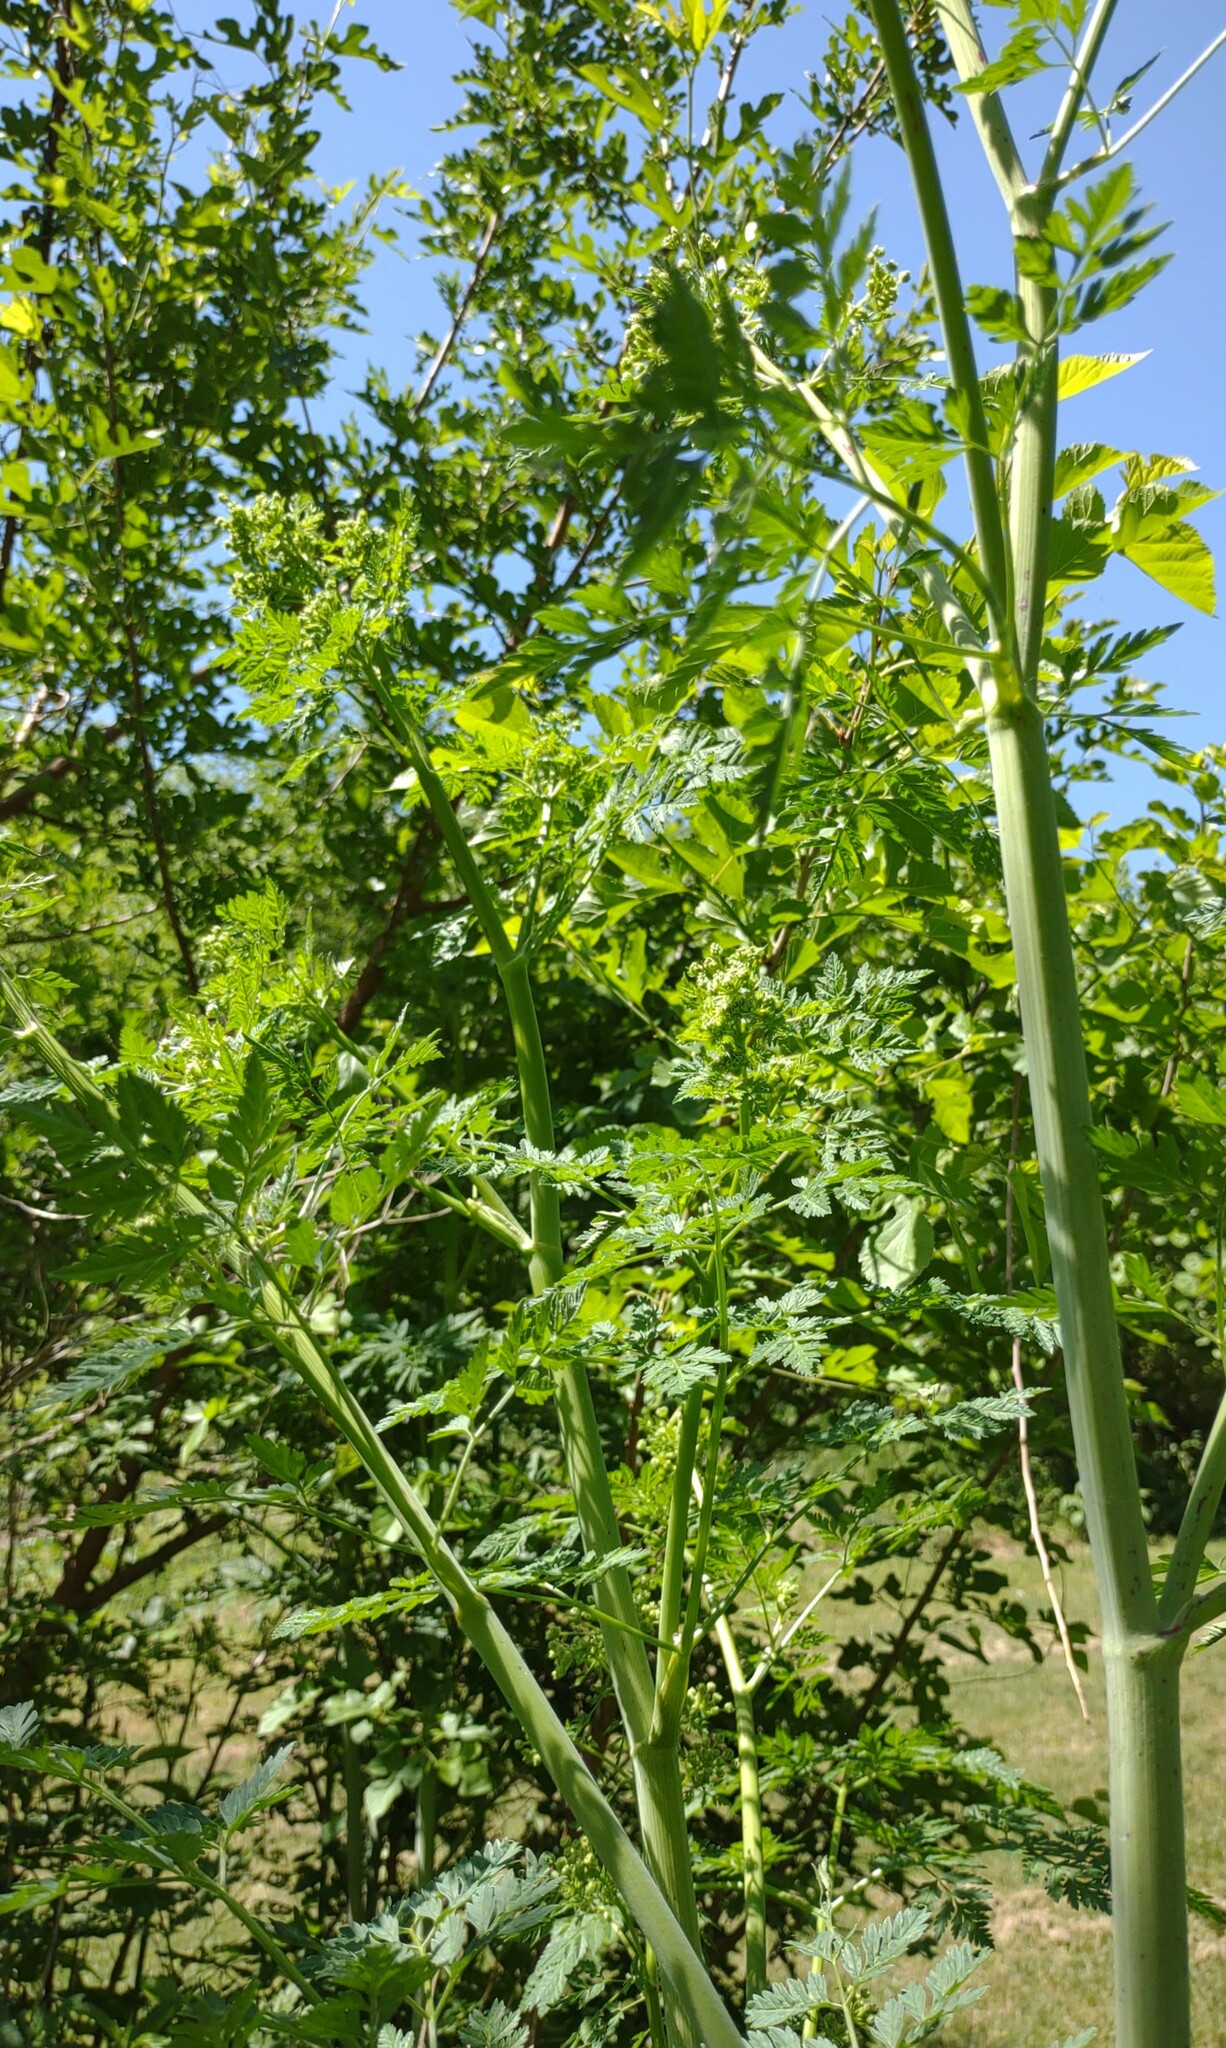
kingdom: Plantae
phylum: Tracheophyta
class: Magnoliopsida
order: Apiales
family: Apiaceae
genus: Conium
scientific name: Conium maculatum
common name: Hemlock
